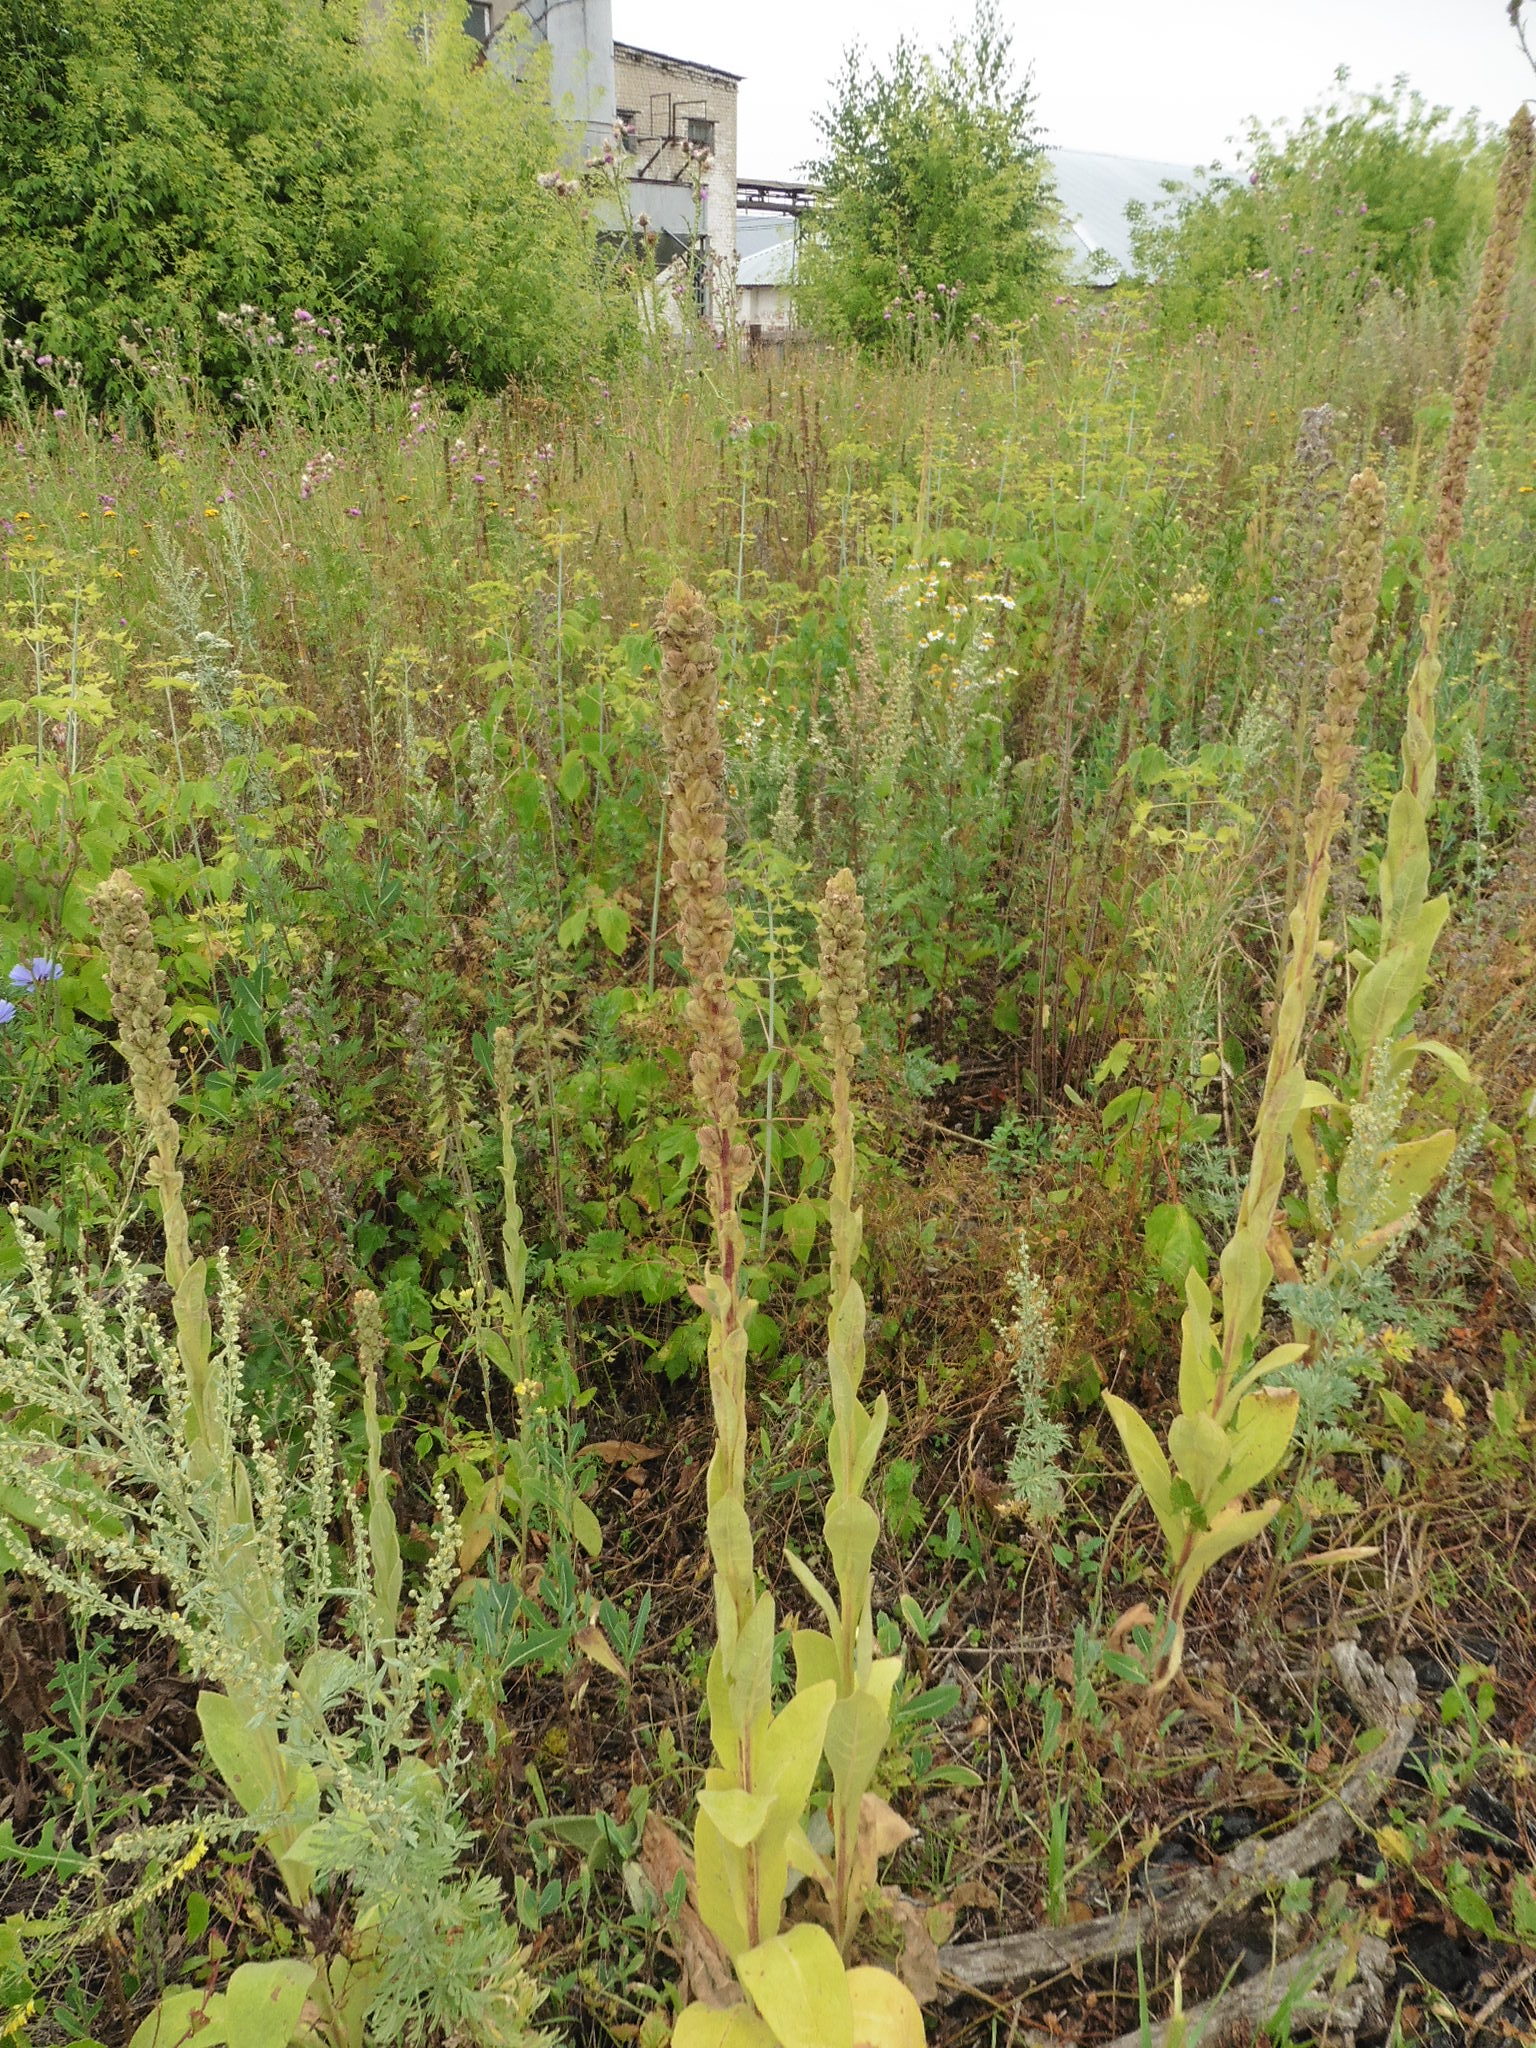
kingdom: Plantae
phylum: Tracheophyta
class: Magnoliopsida
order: Lamiales
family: Scrophulariaceae
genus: Verbascum
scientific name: Verbascum thapsus
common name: Common mullein
